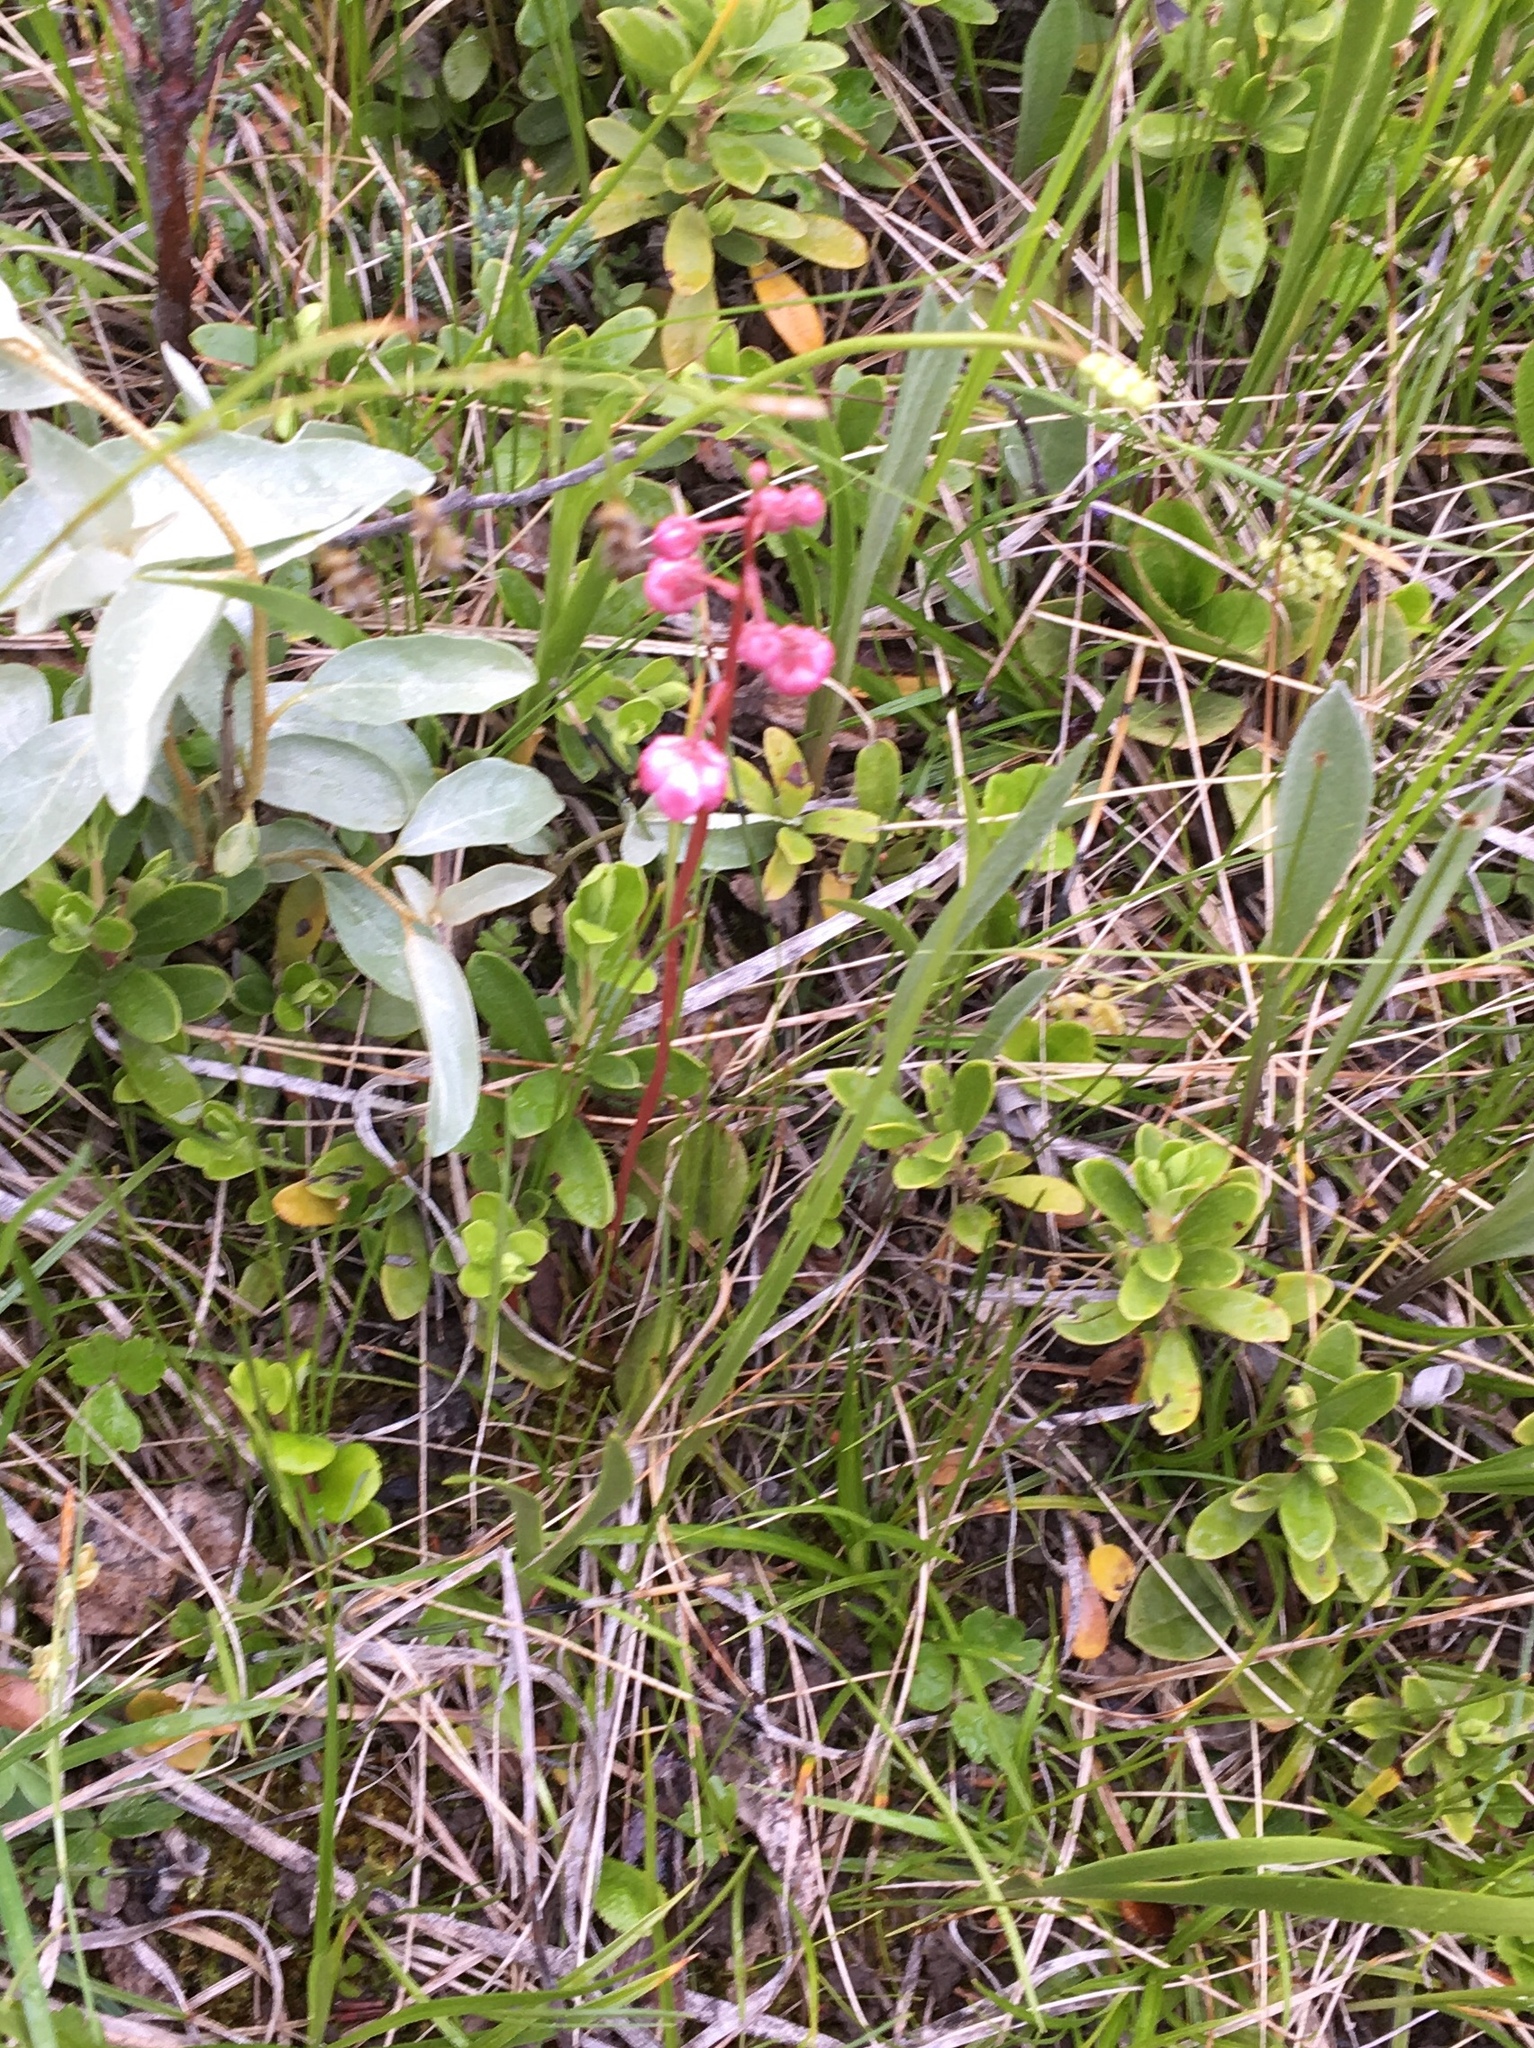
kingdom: Plantae
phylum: Tracheophyta
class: Magnoliopsida
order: Ericales
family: Ericaceae
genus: Pyrola
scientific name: Pyrola asarifolia
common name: Bog wintergreen
